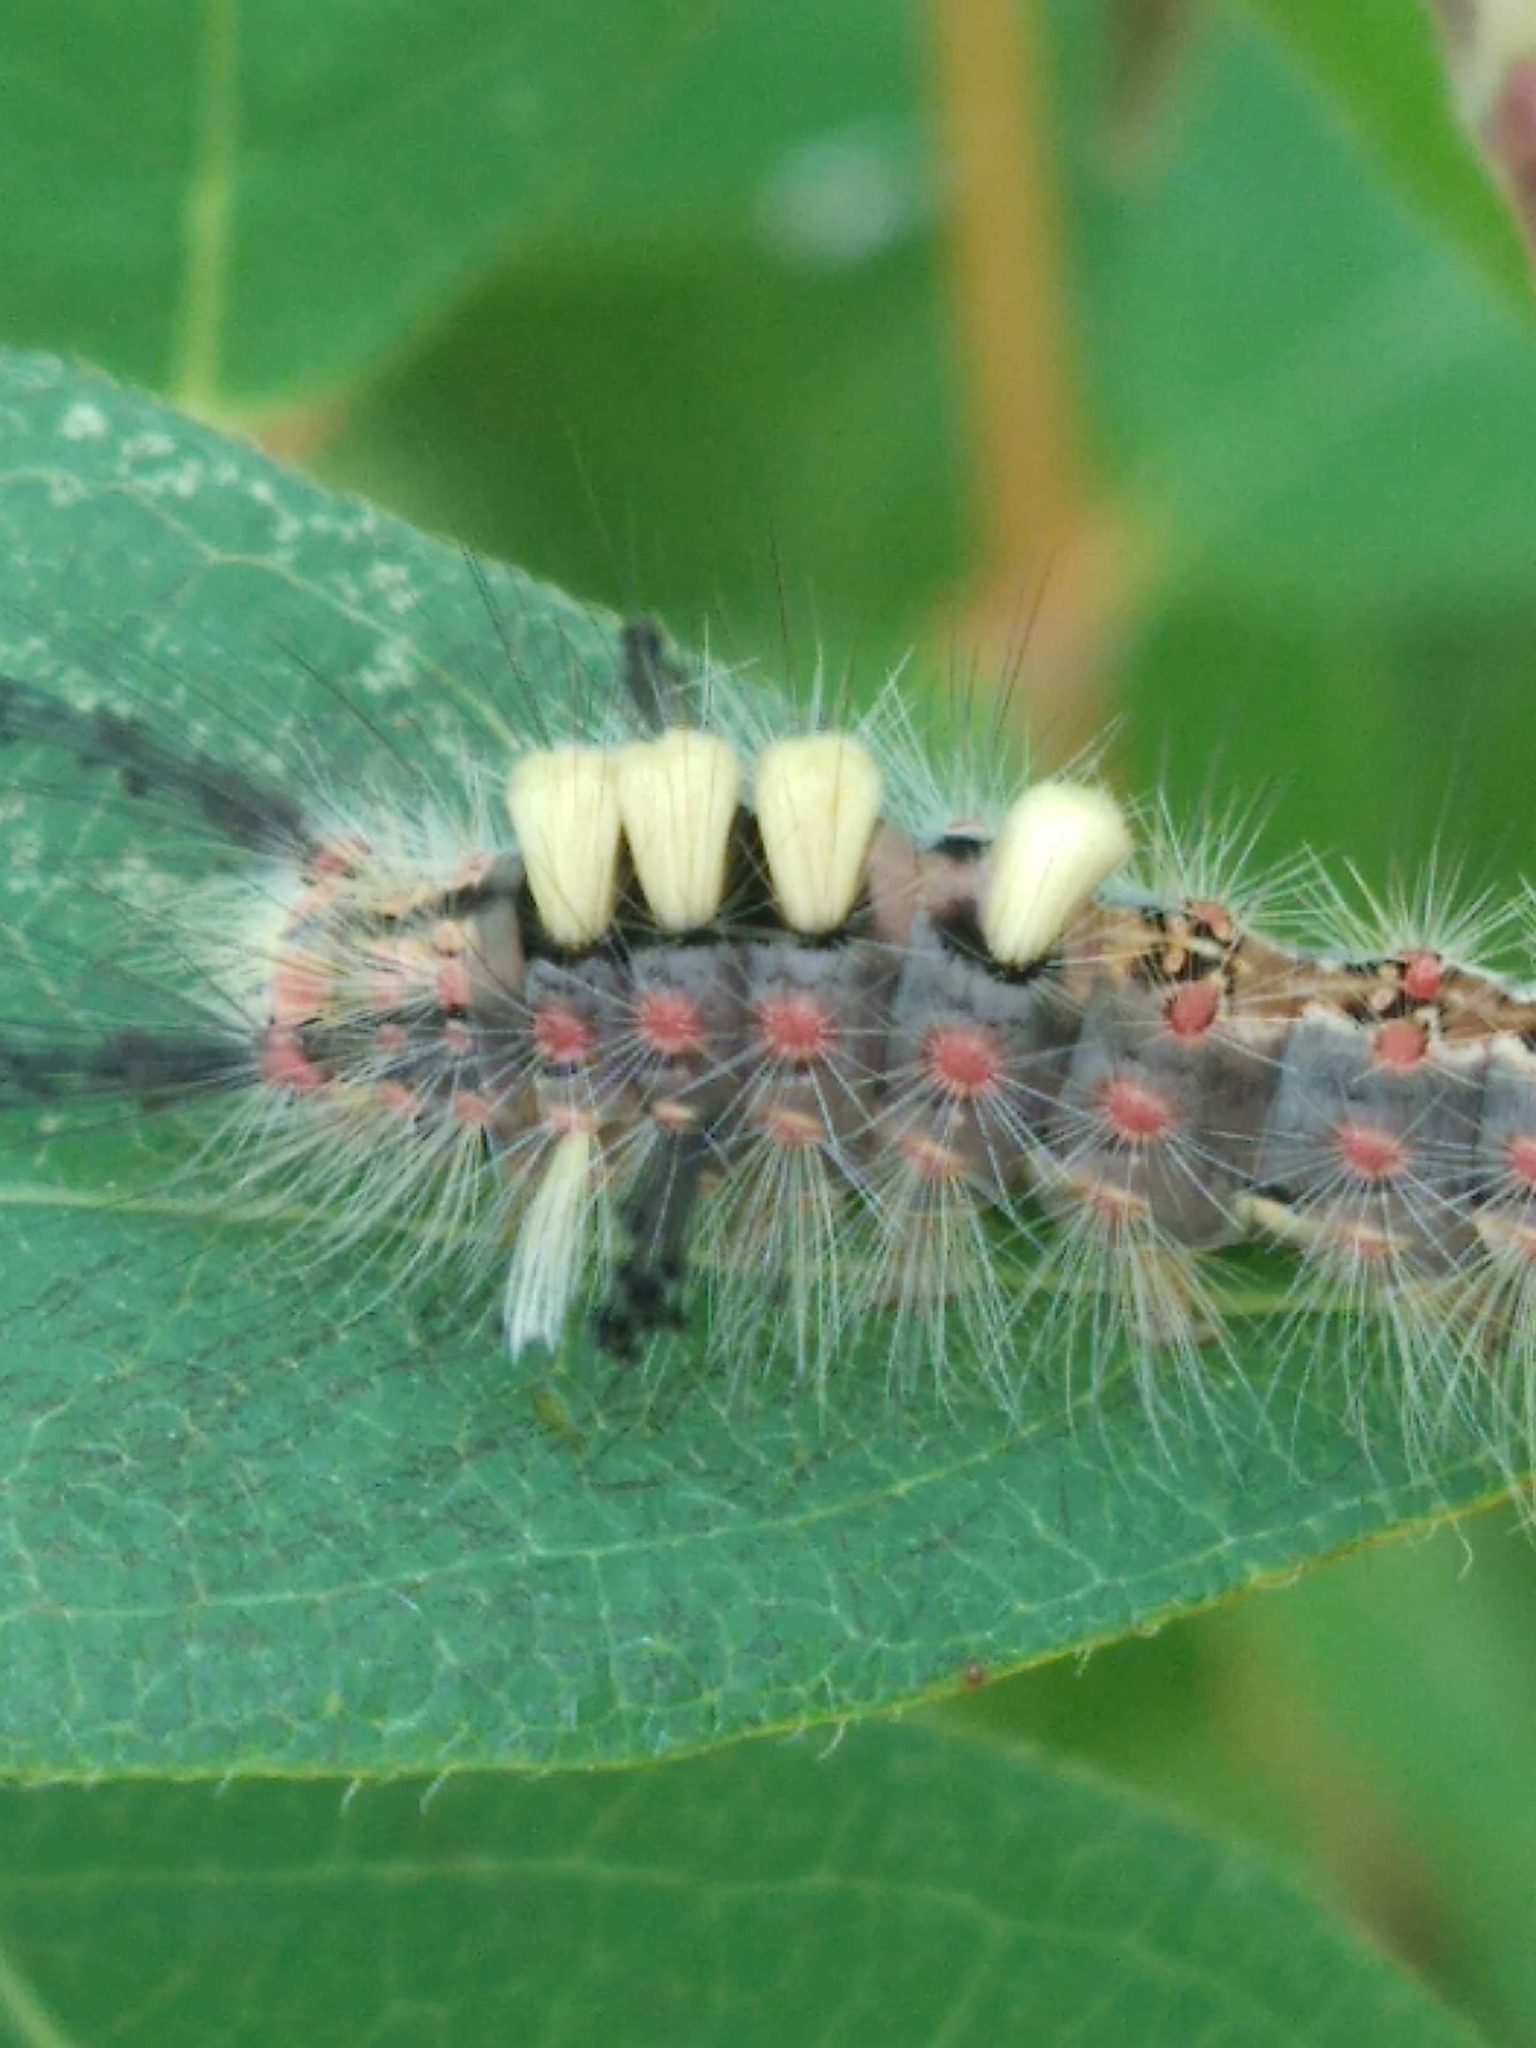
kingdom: Animalia
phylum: Arthropoda
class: Insecta
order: Lepidoptera
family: Erebidae
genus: Orgyia
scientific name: Orgyia antiqua
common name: Vapourer
